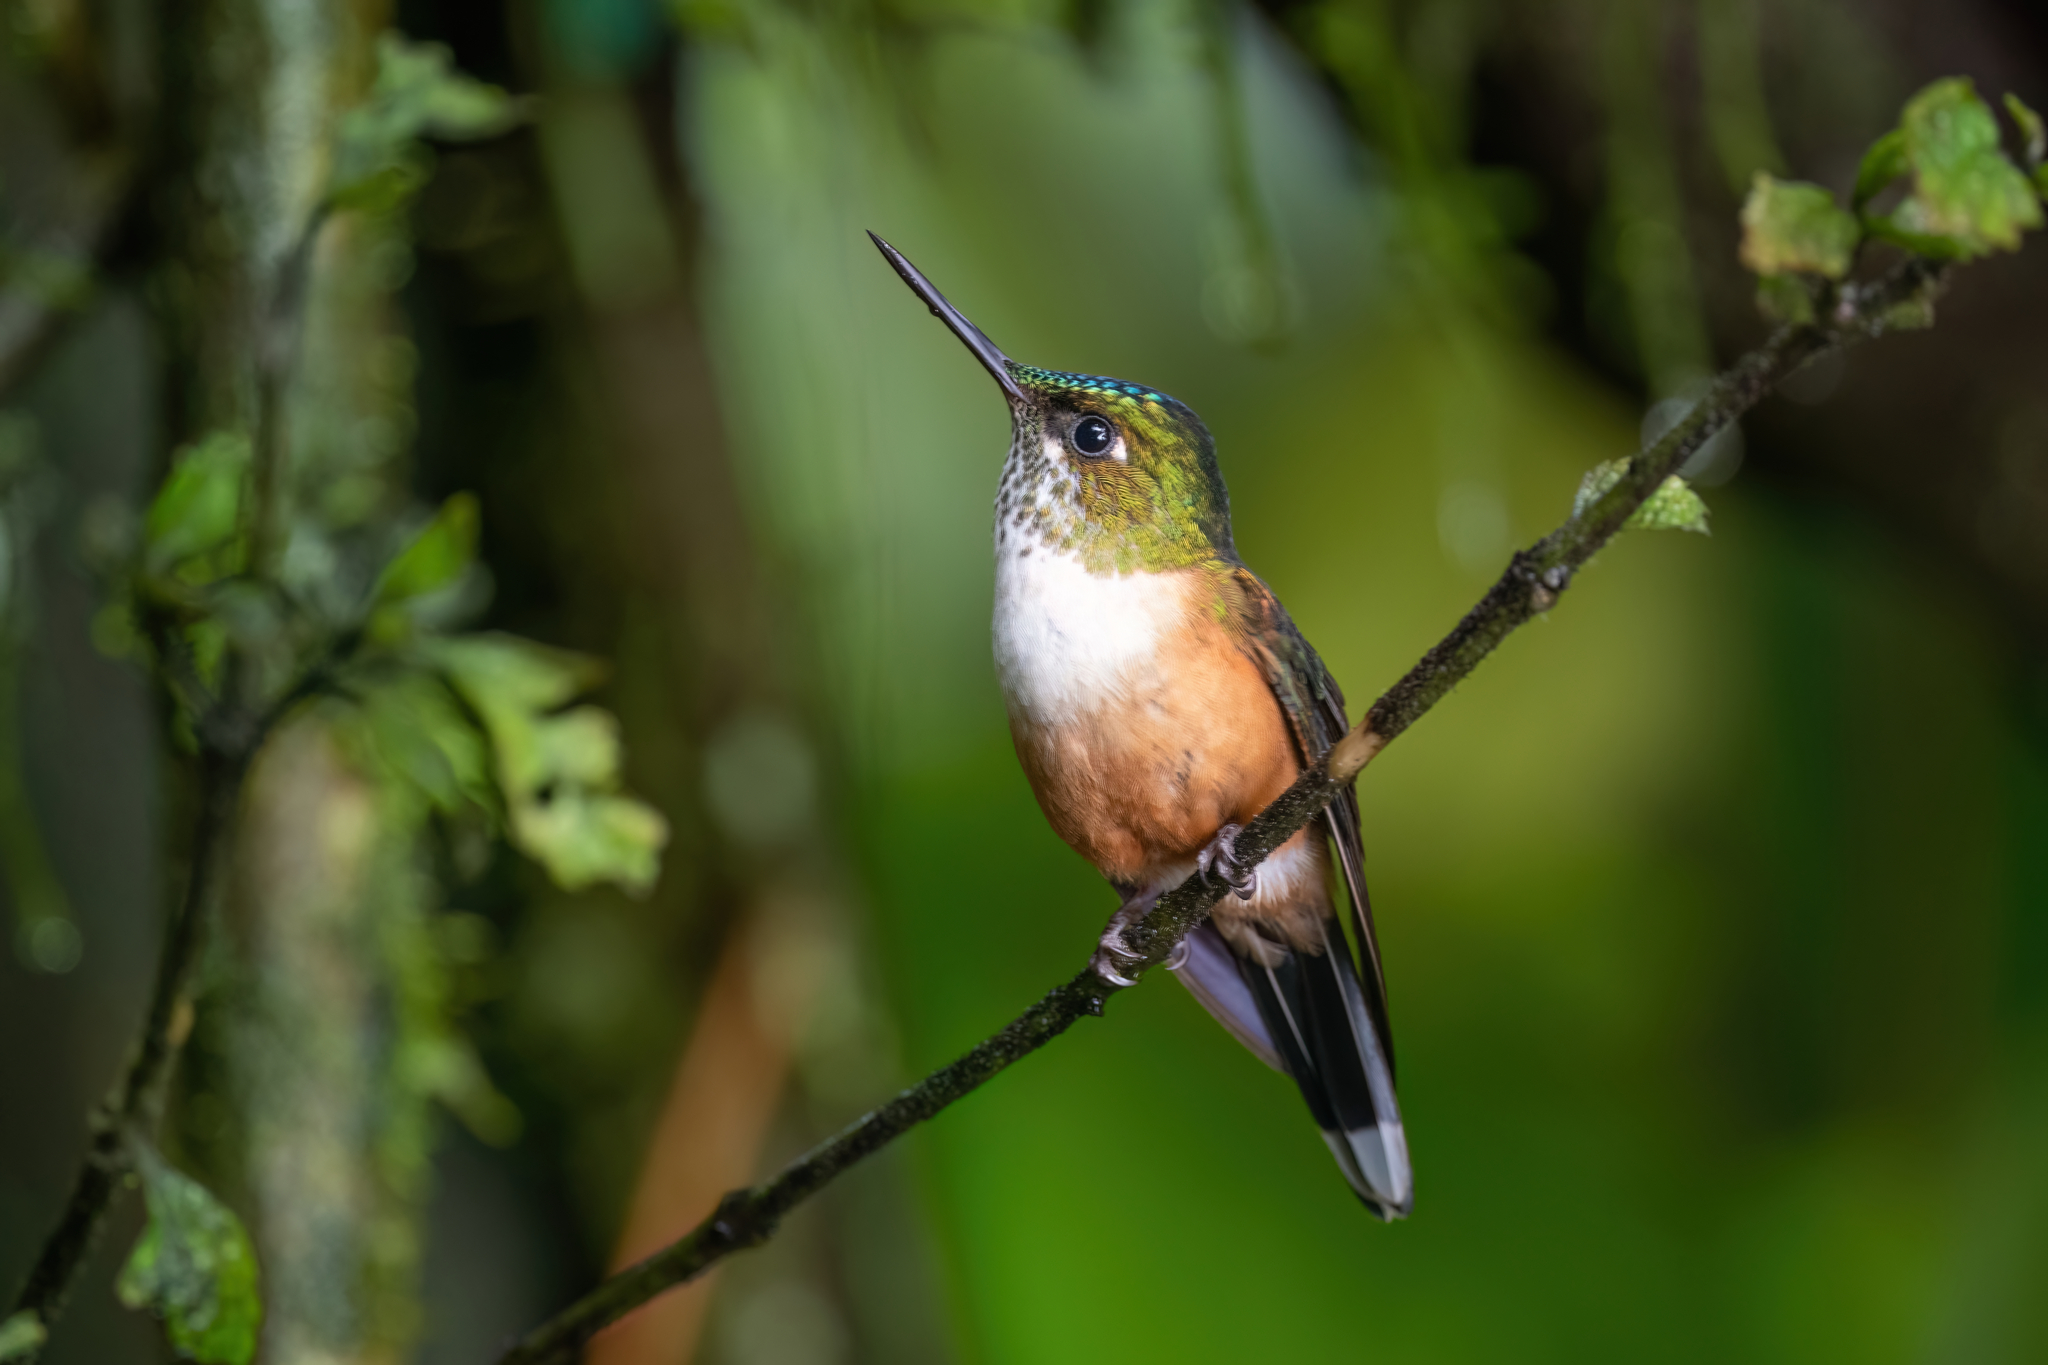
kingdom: Animalia
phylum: Chordata
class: Aves
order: Apodiformes
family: Trochilidae
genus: Aglaiocercus
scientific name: Aglaiocercus coelestis
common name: Violet-tailed sylph
